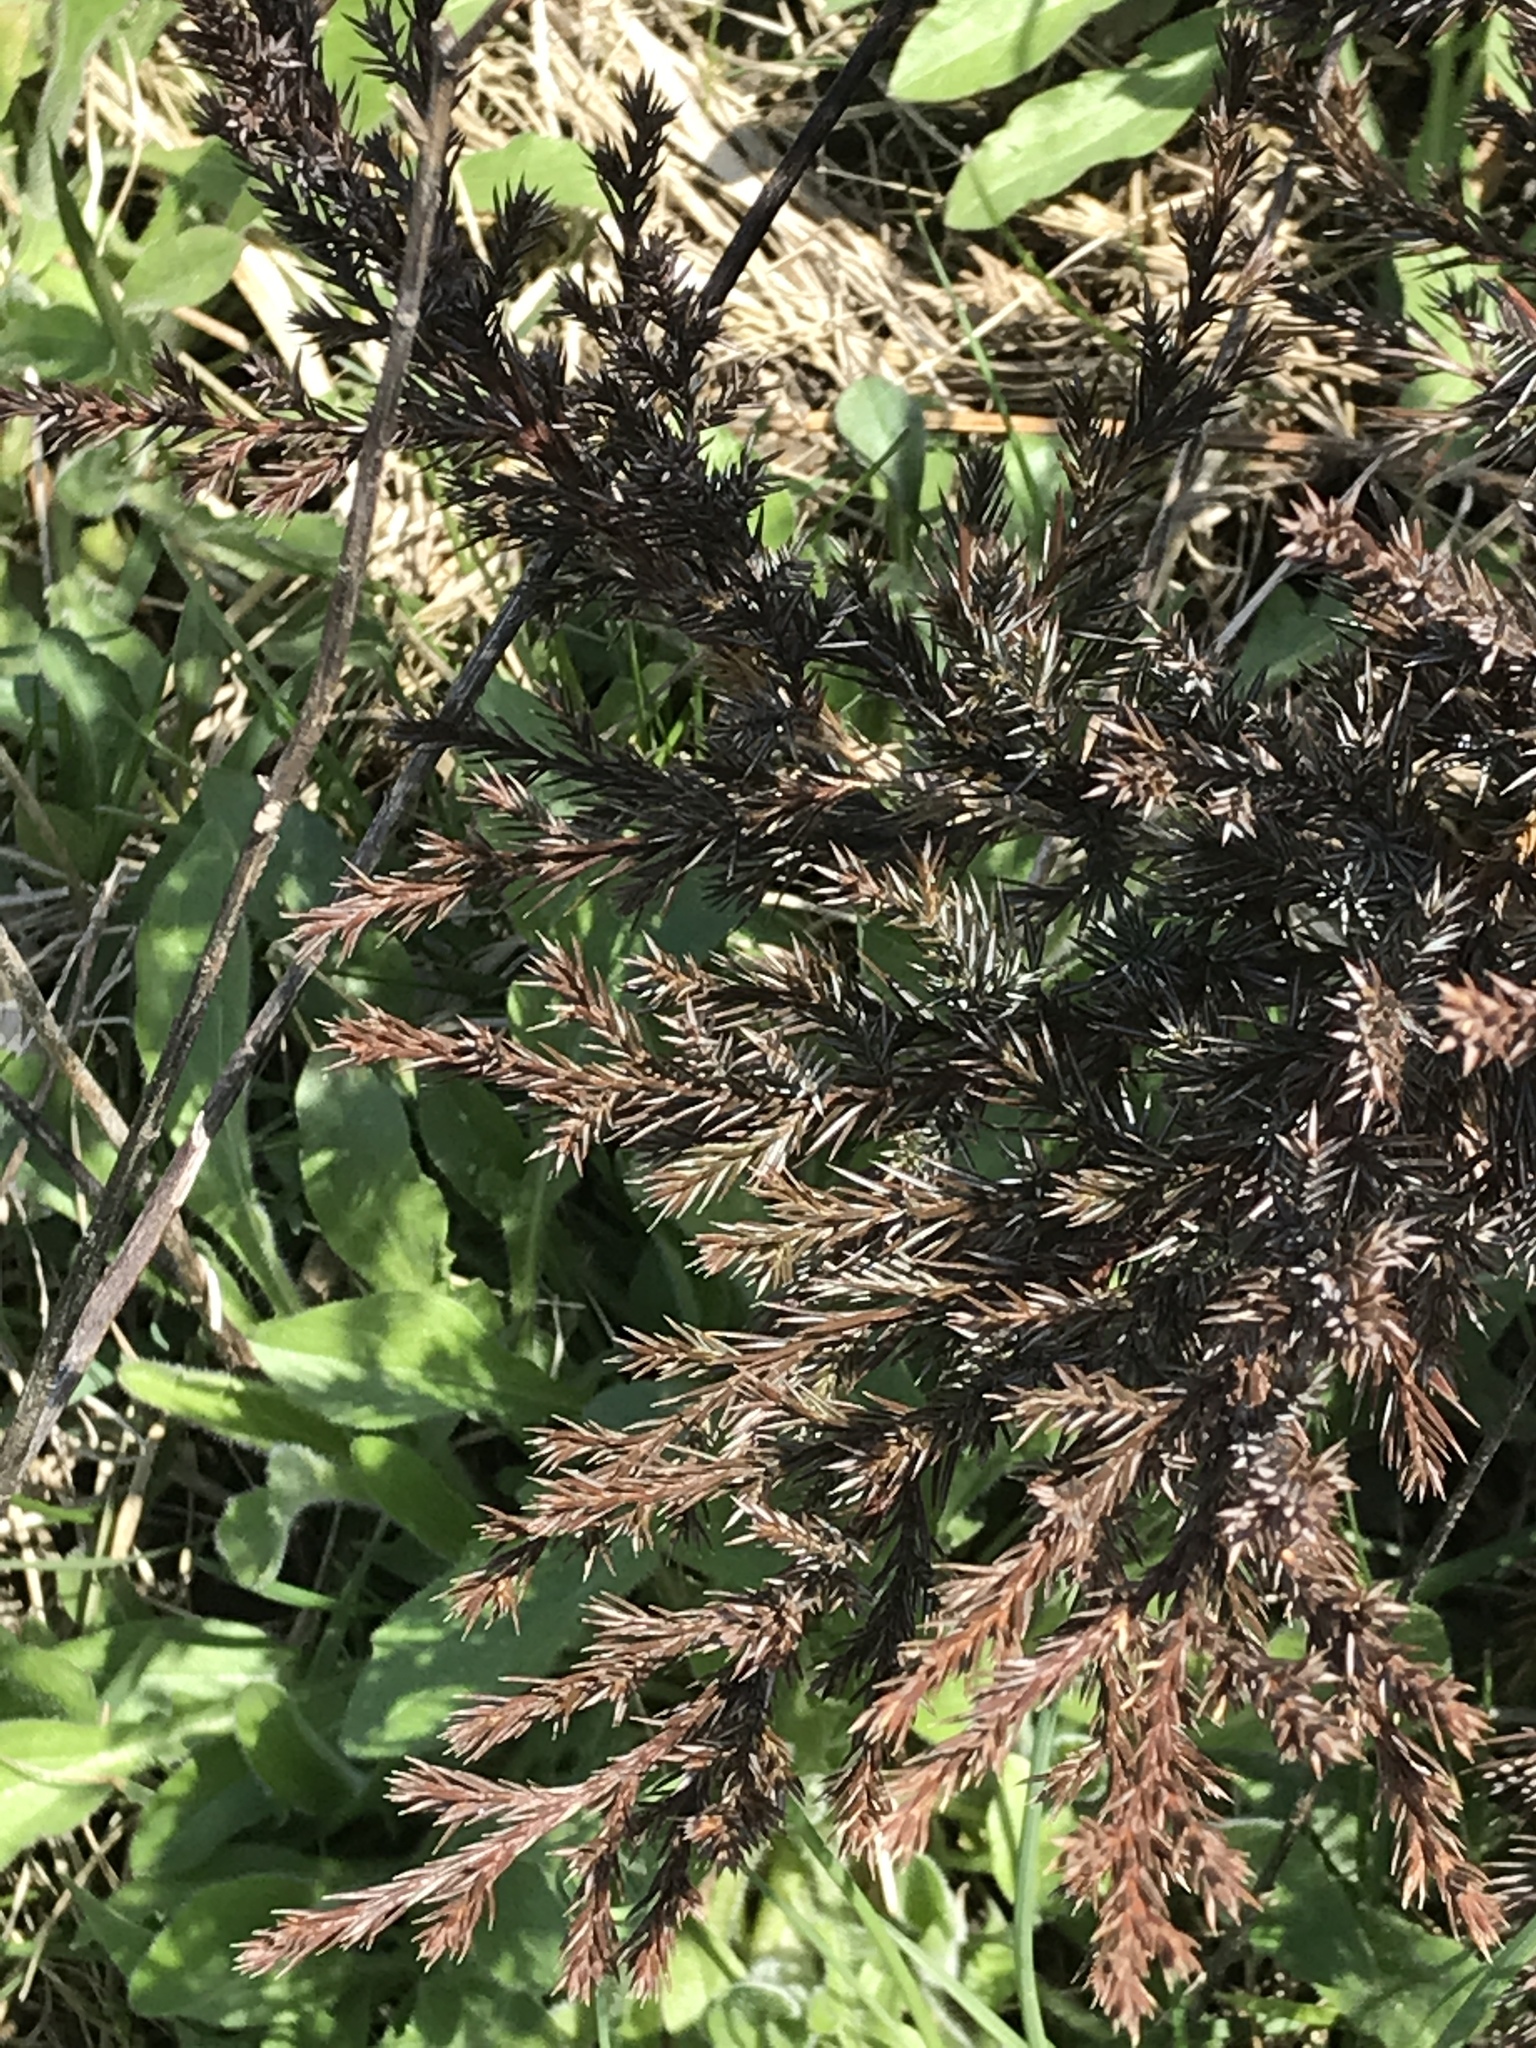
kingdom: Plantae
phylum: Tracheophyta
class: Pinopsida
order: Pinales
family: Cupressaceae
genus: Juniperus
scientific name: Juniperus virginiana
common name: Red juniper
